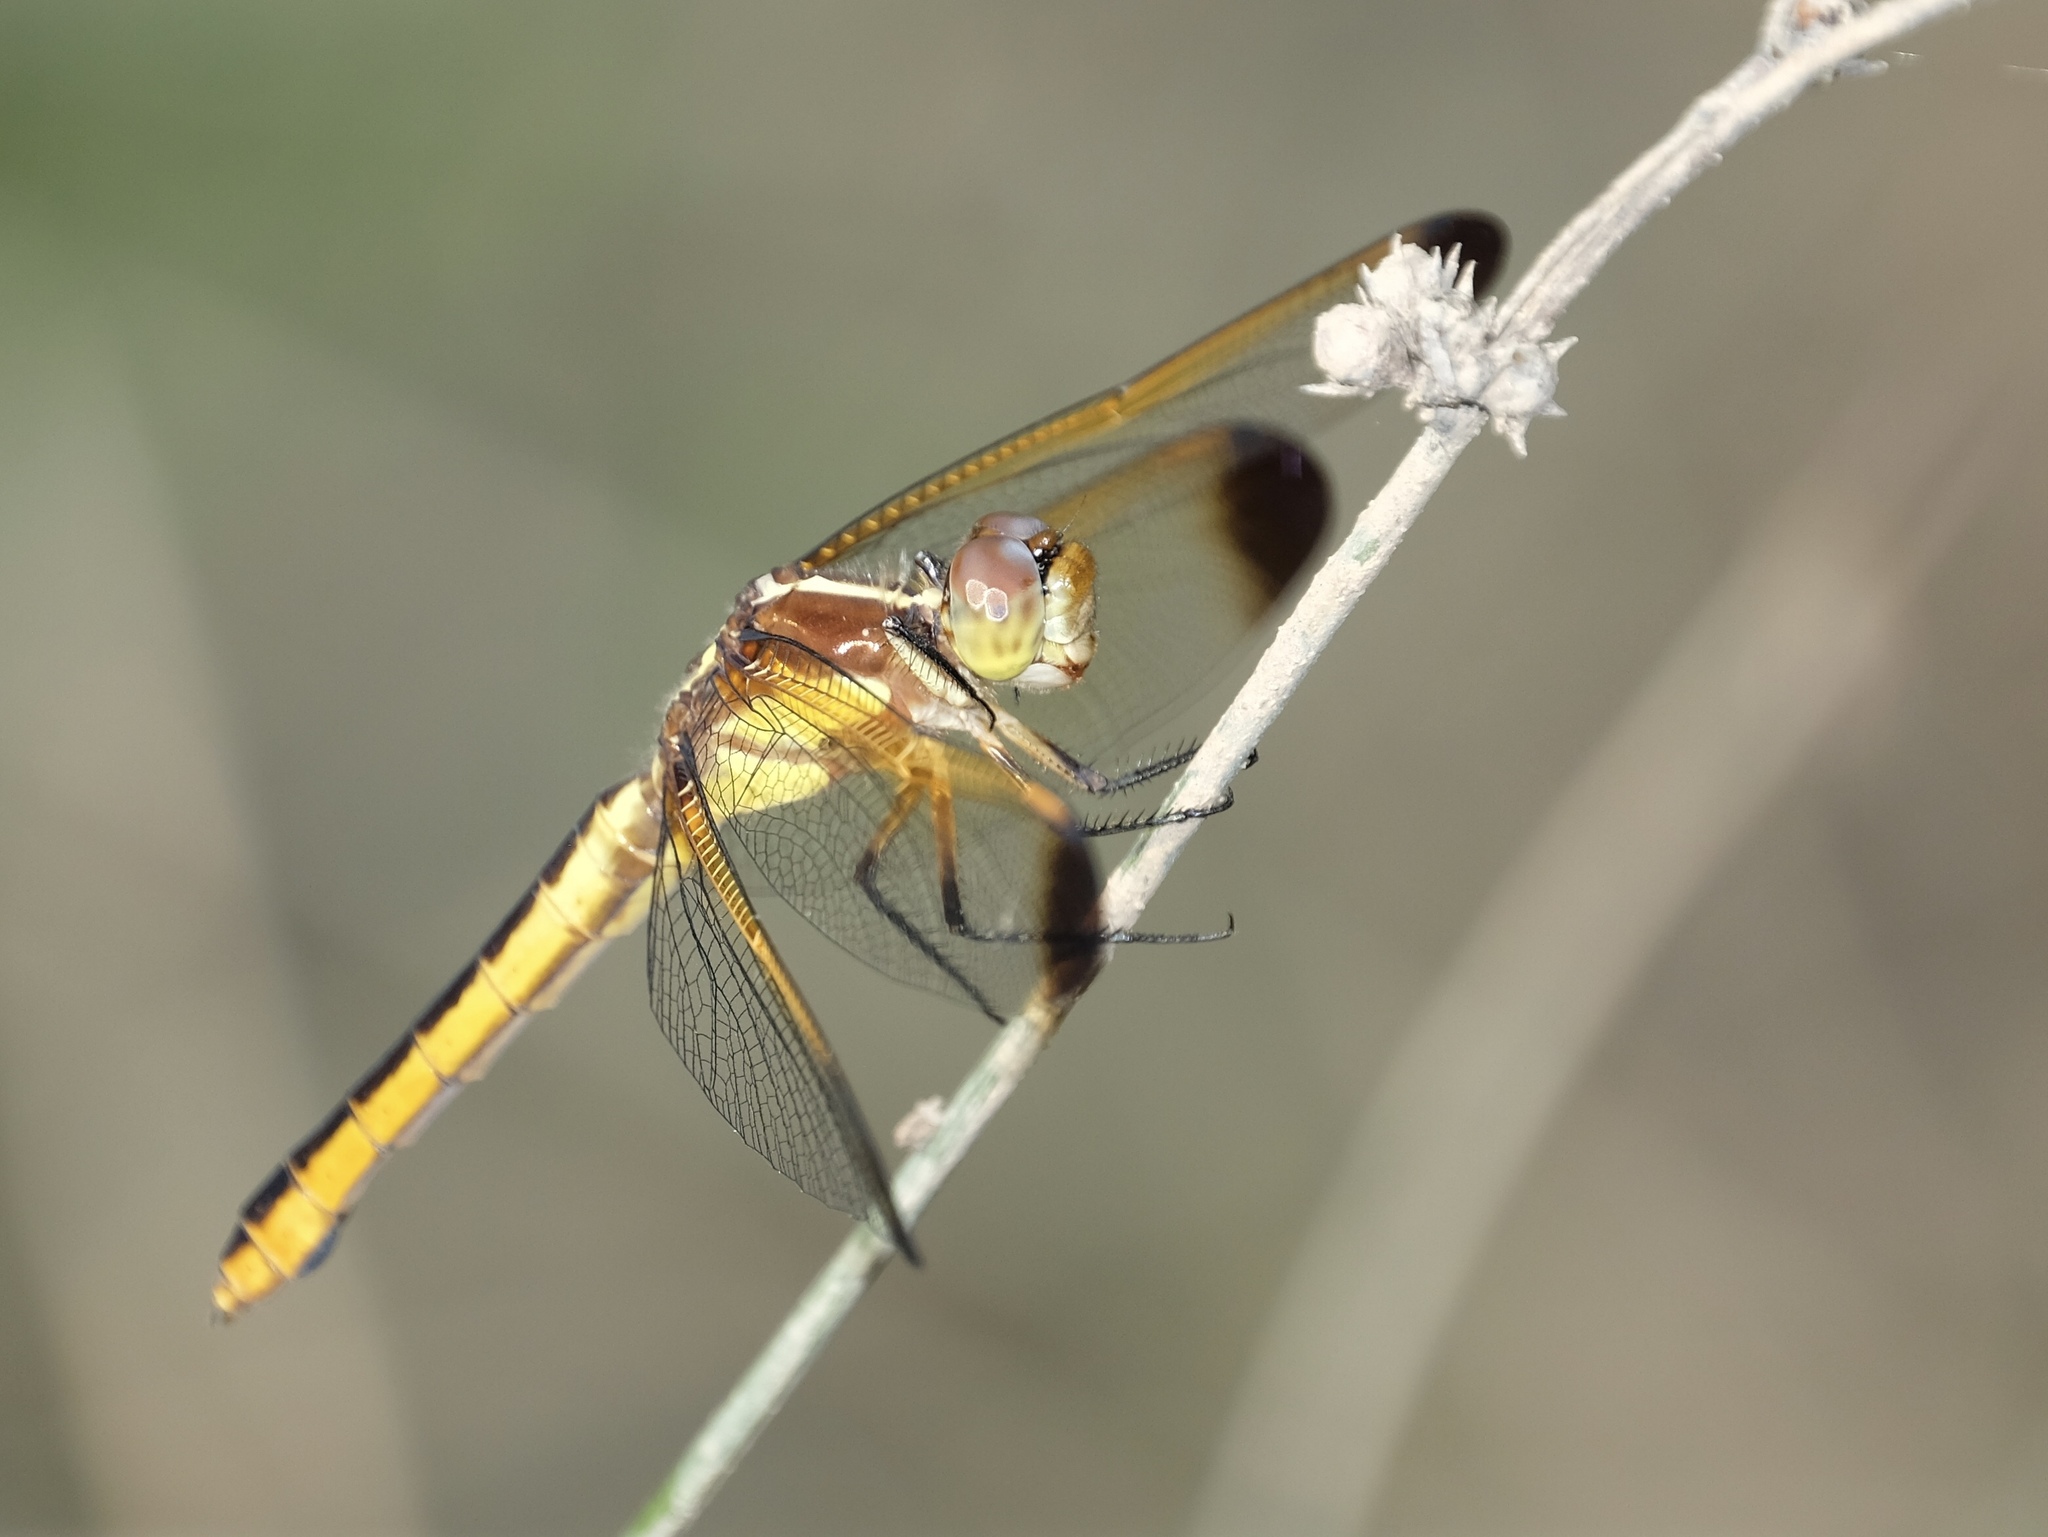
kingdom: Animalia
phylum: Arthropoda
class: Insecta
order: Odonata
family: Libellulidae
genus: Libellula
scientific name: Libellula flavida
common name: Yellow-sided skimmer
